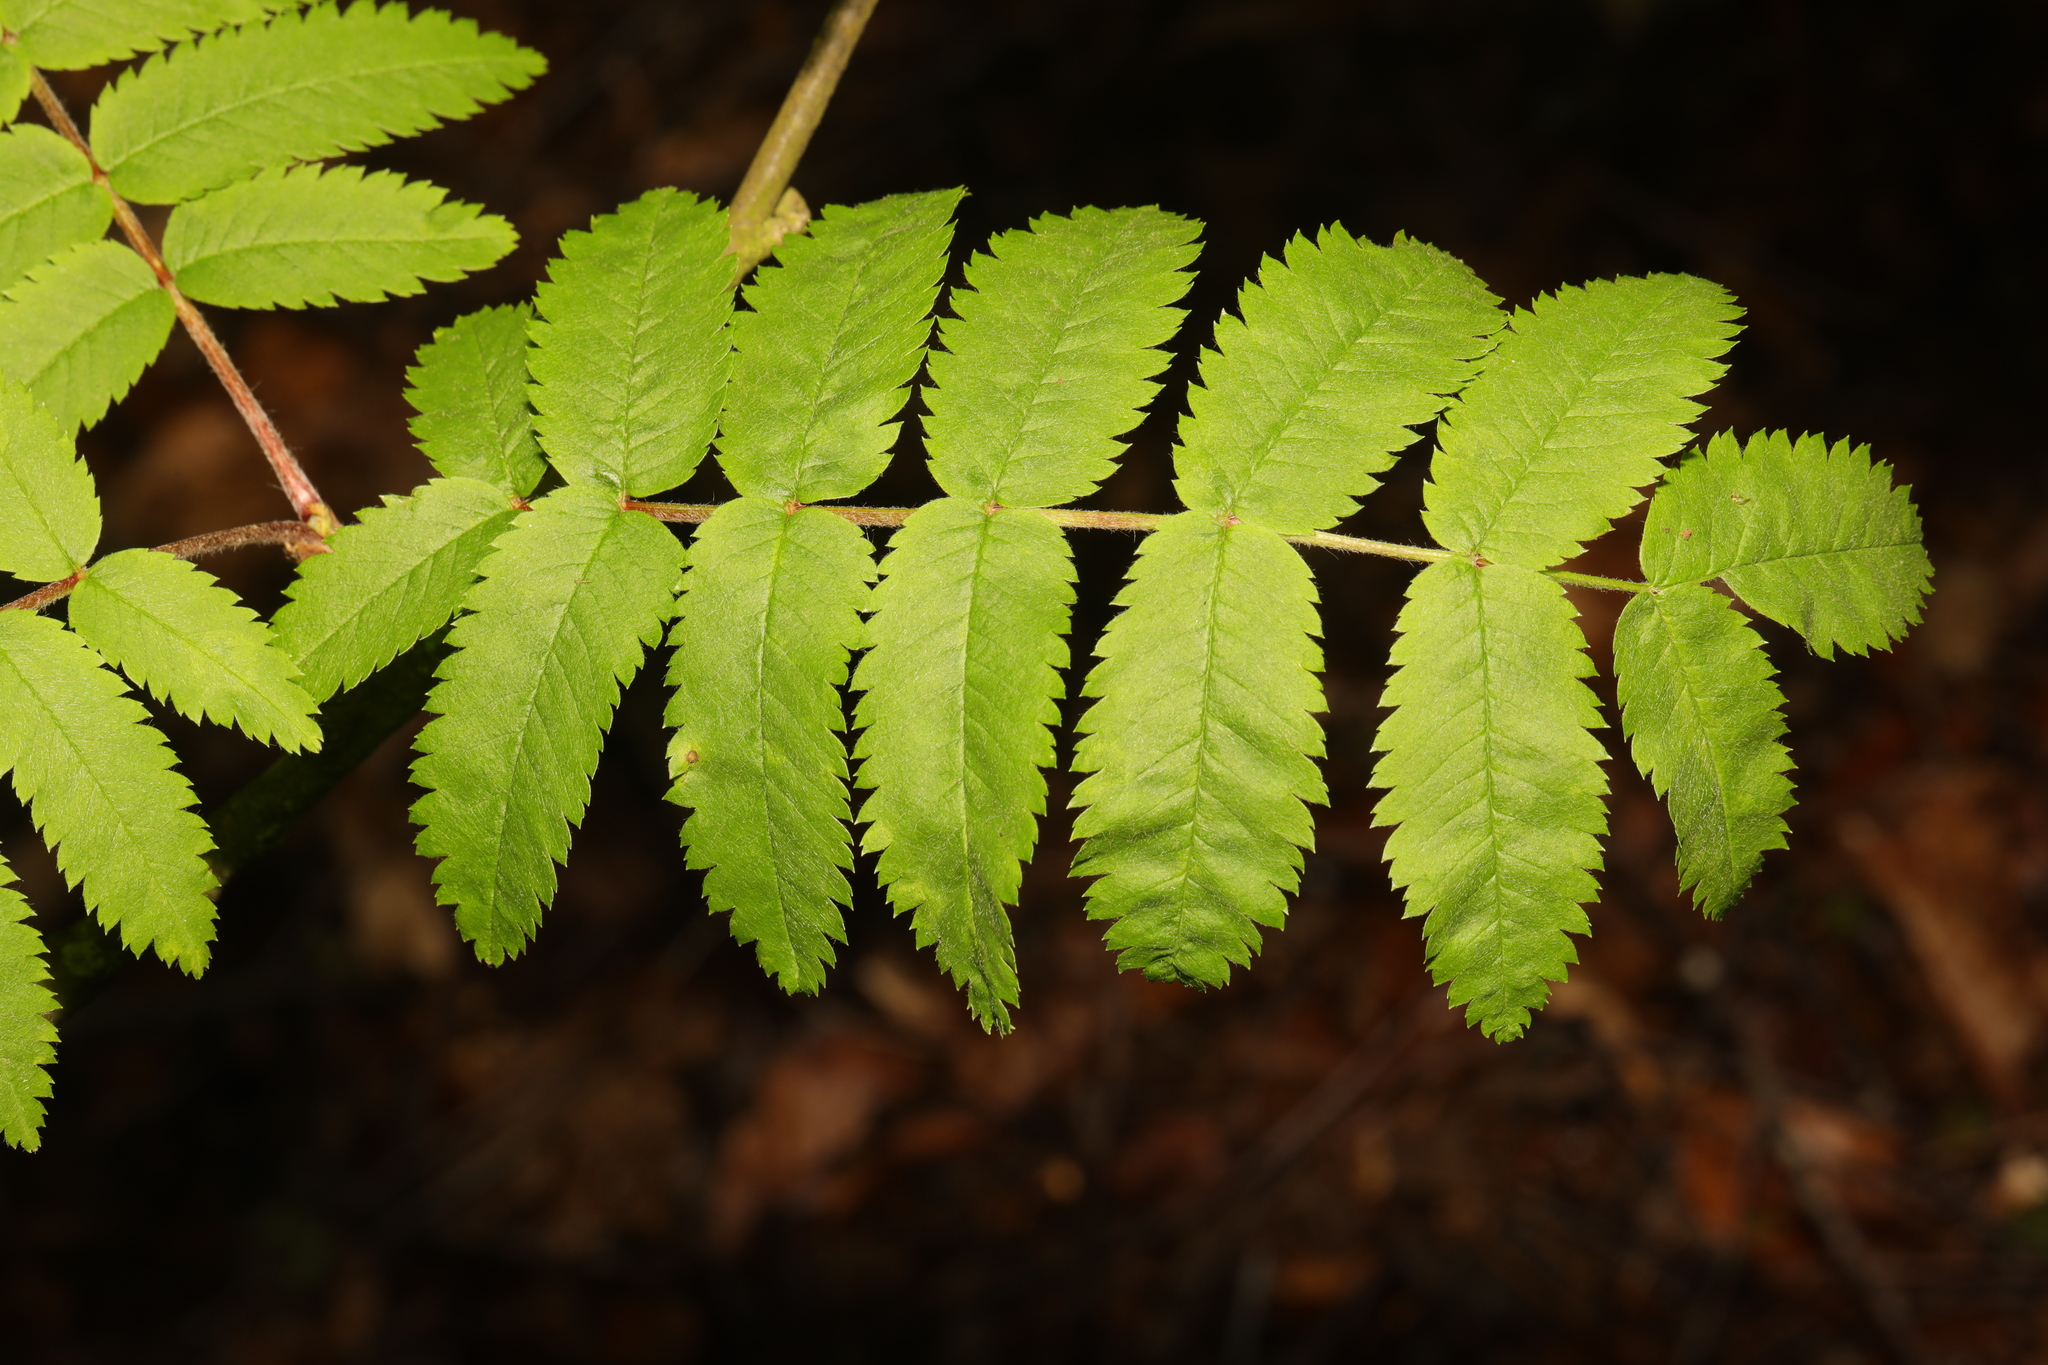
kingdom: Plantae
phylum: Tracheophyta
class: Magnoliopsida
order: Rosales
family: Rosaceae
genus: Sorbus
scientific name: Sorbus aucuparia
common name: Rowan
